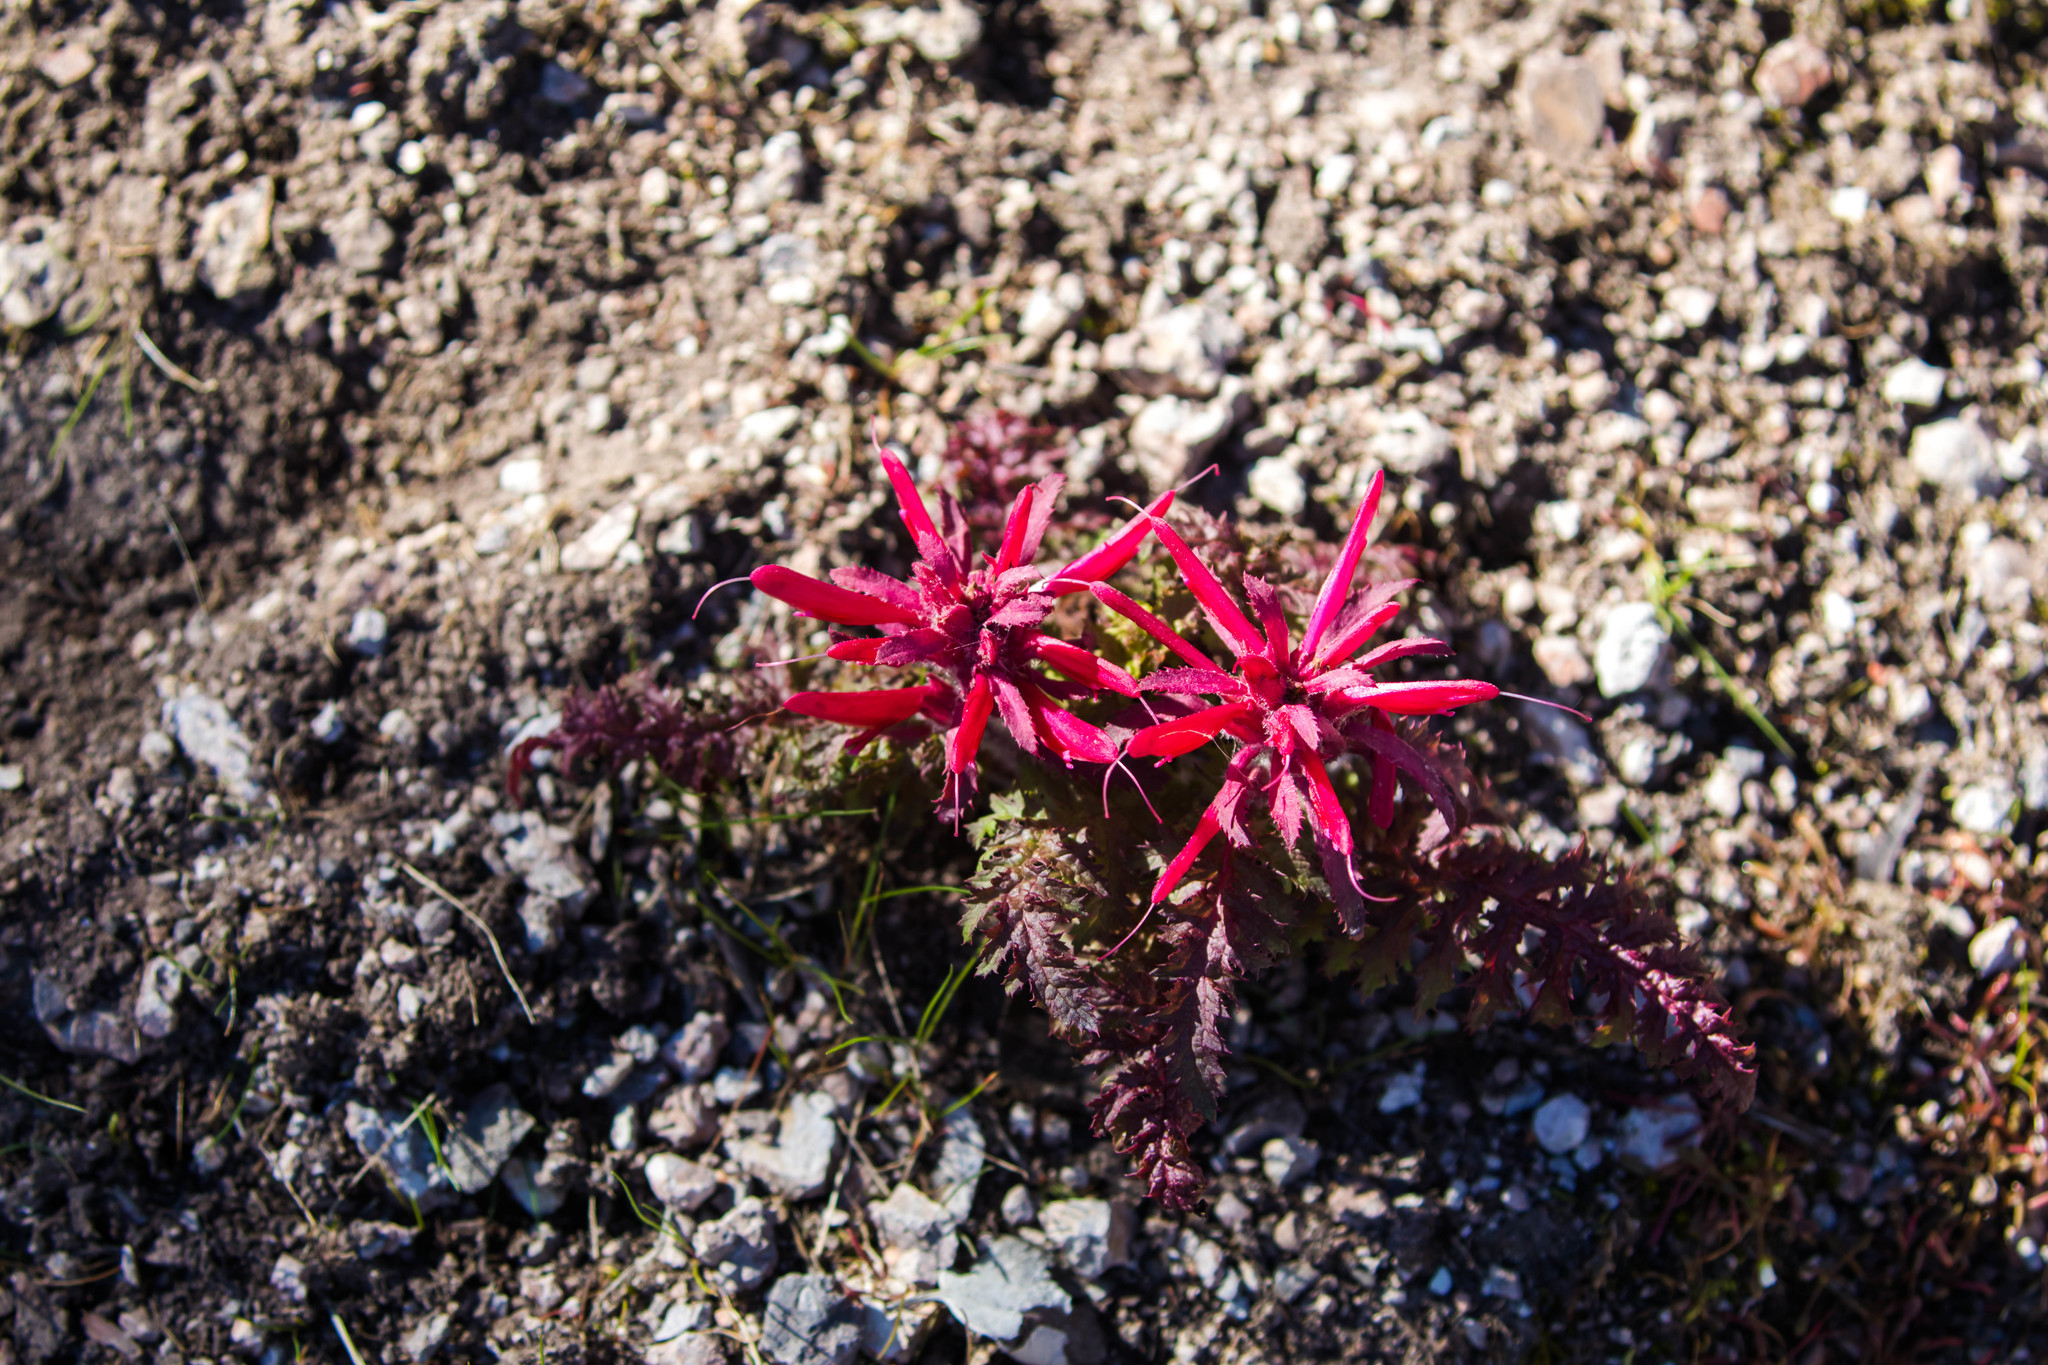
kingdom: Plantae
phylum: Tracheophyta
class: Magnoliopsida
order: Lamiales
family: Orobanchaceae
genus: Pedicularis
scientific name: Pedicularis densiflora
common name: Indian warrior
